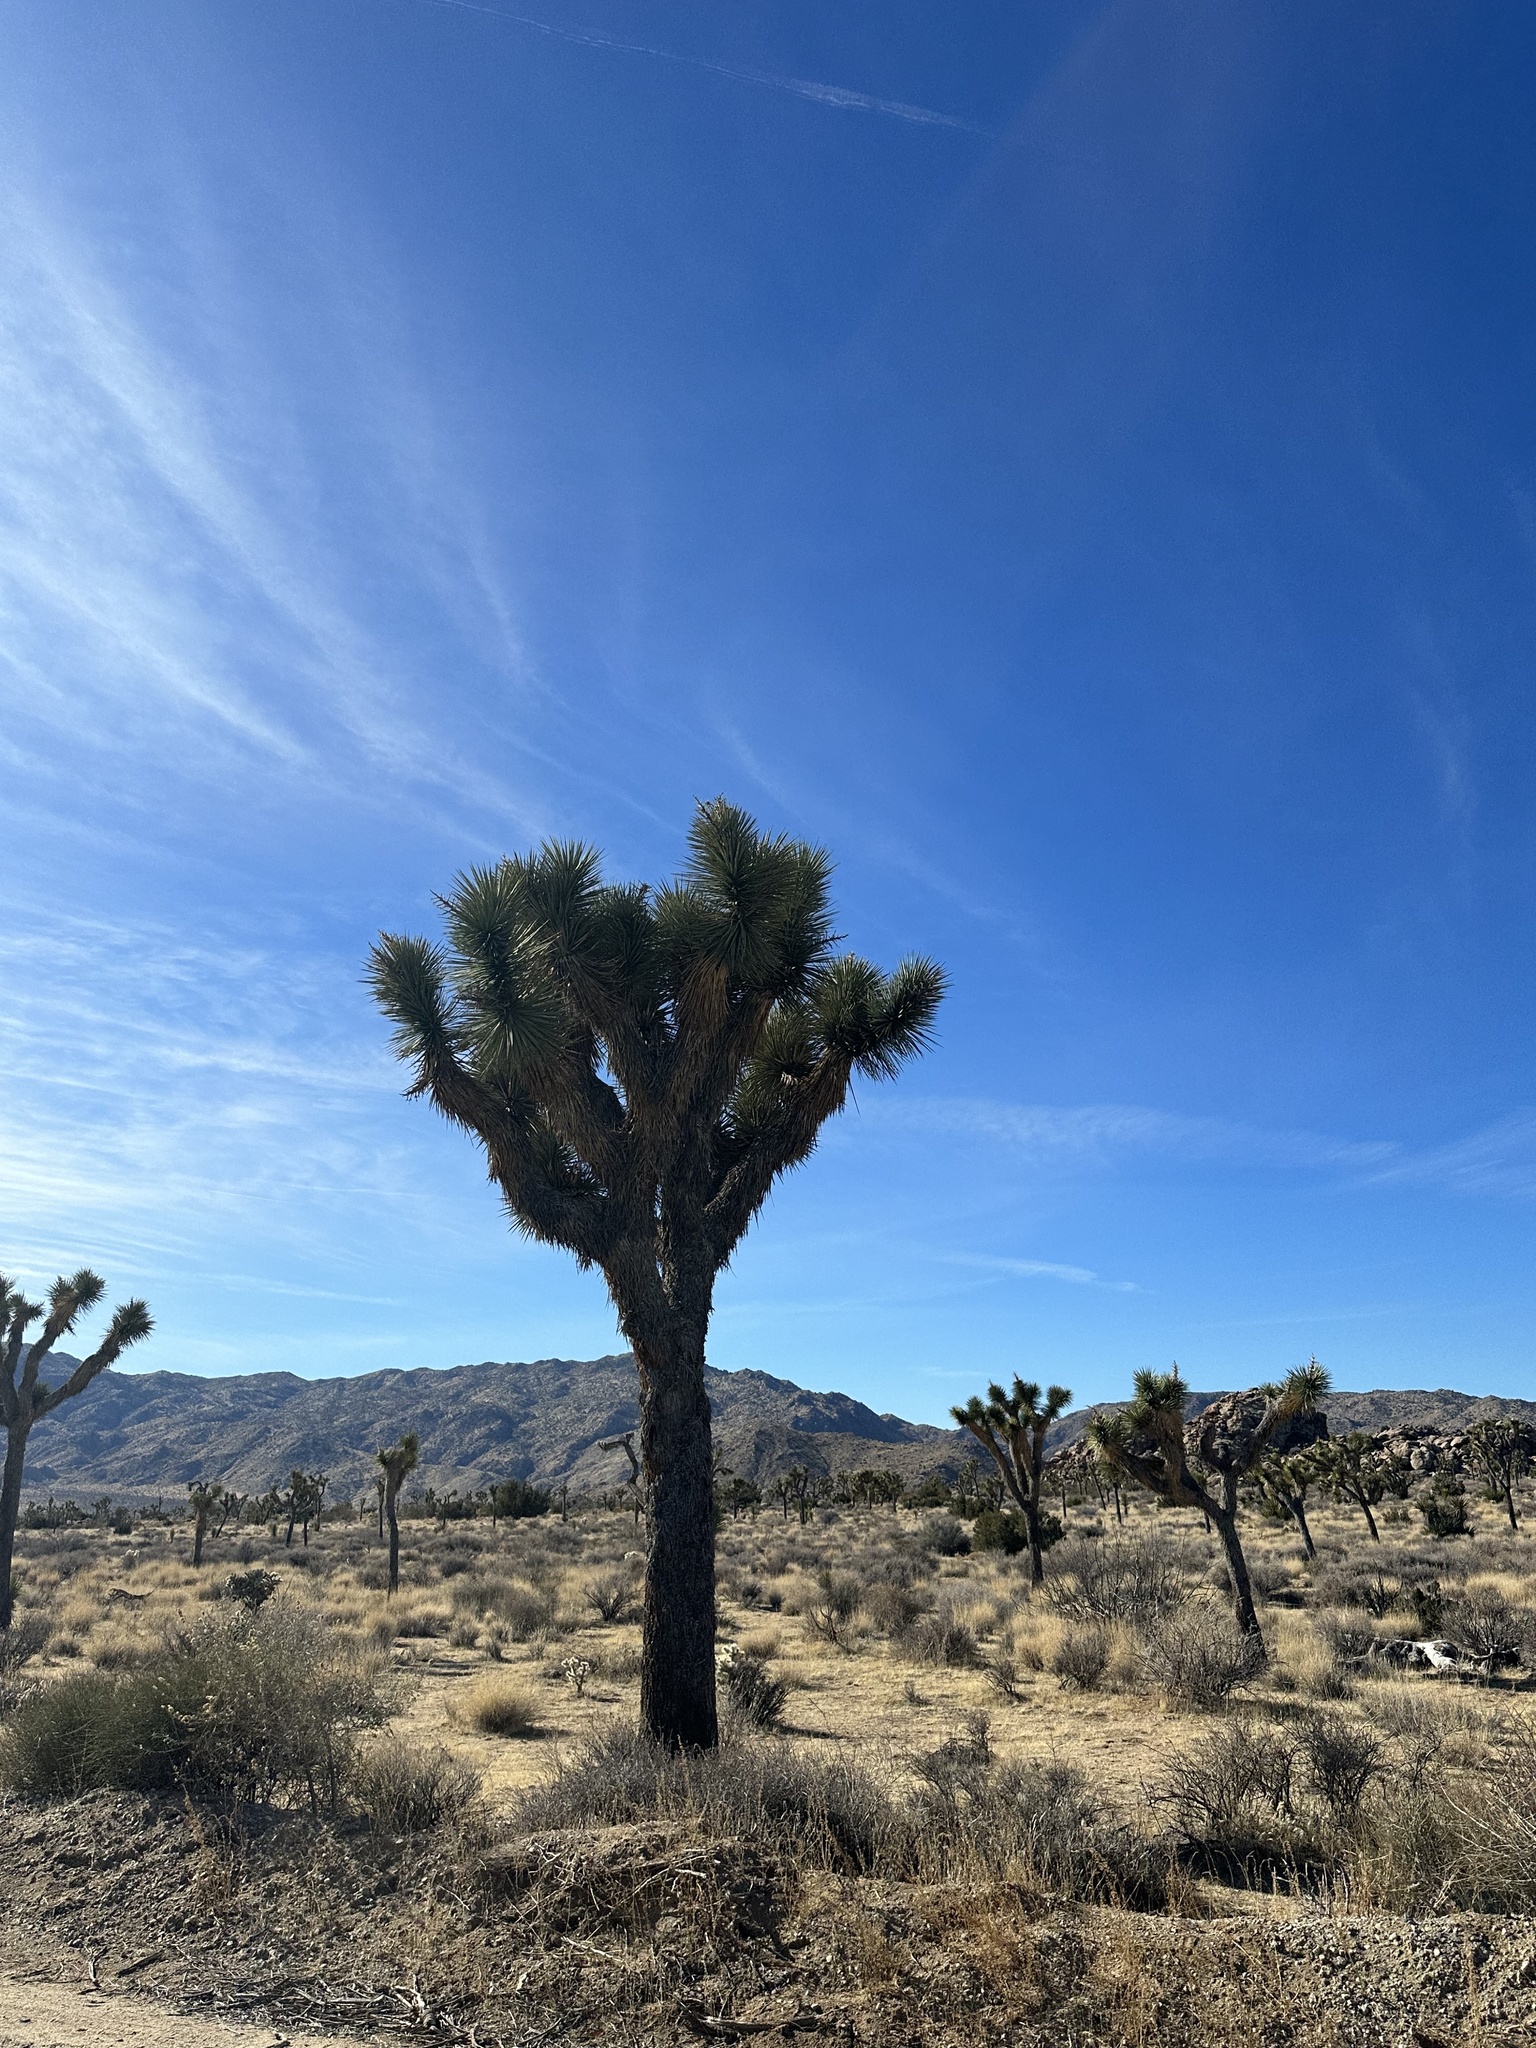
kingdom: Plantae
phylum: Tracheophyta
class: Liliopsida
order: Asparagales
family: Asparagaceae
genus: Yucca
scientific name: Yucca brevifolia
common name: Joshua tree
